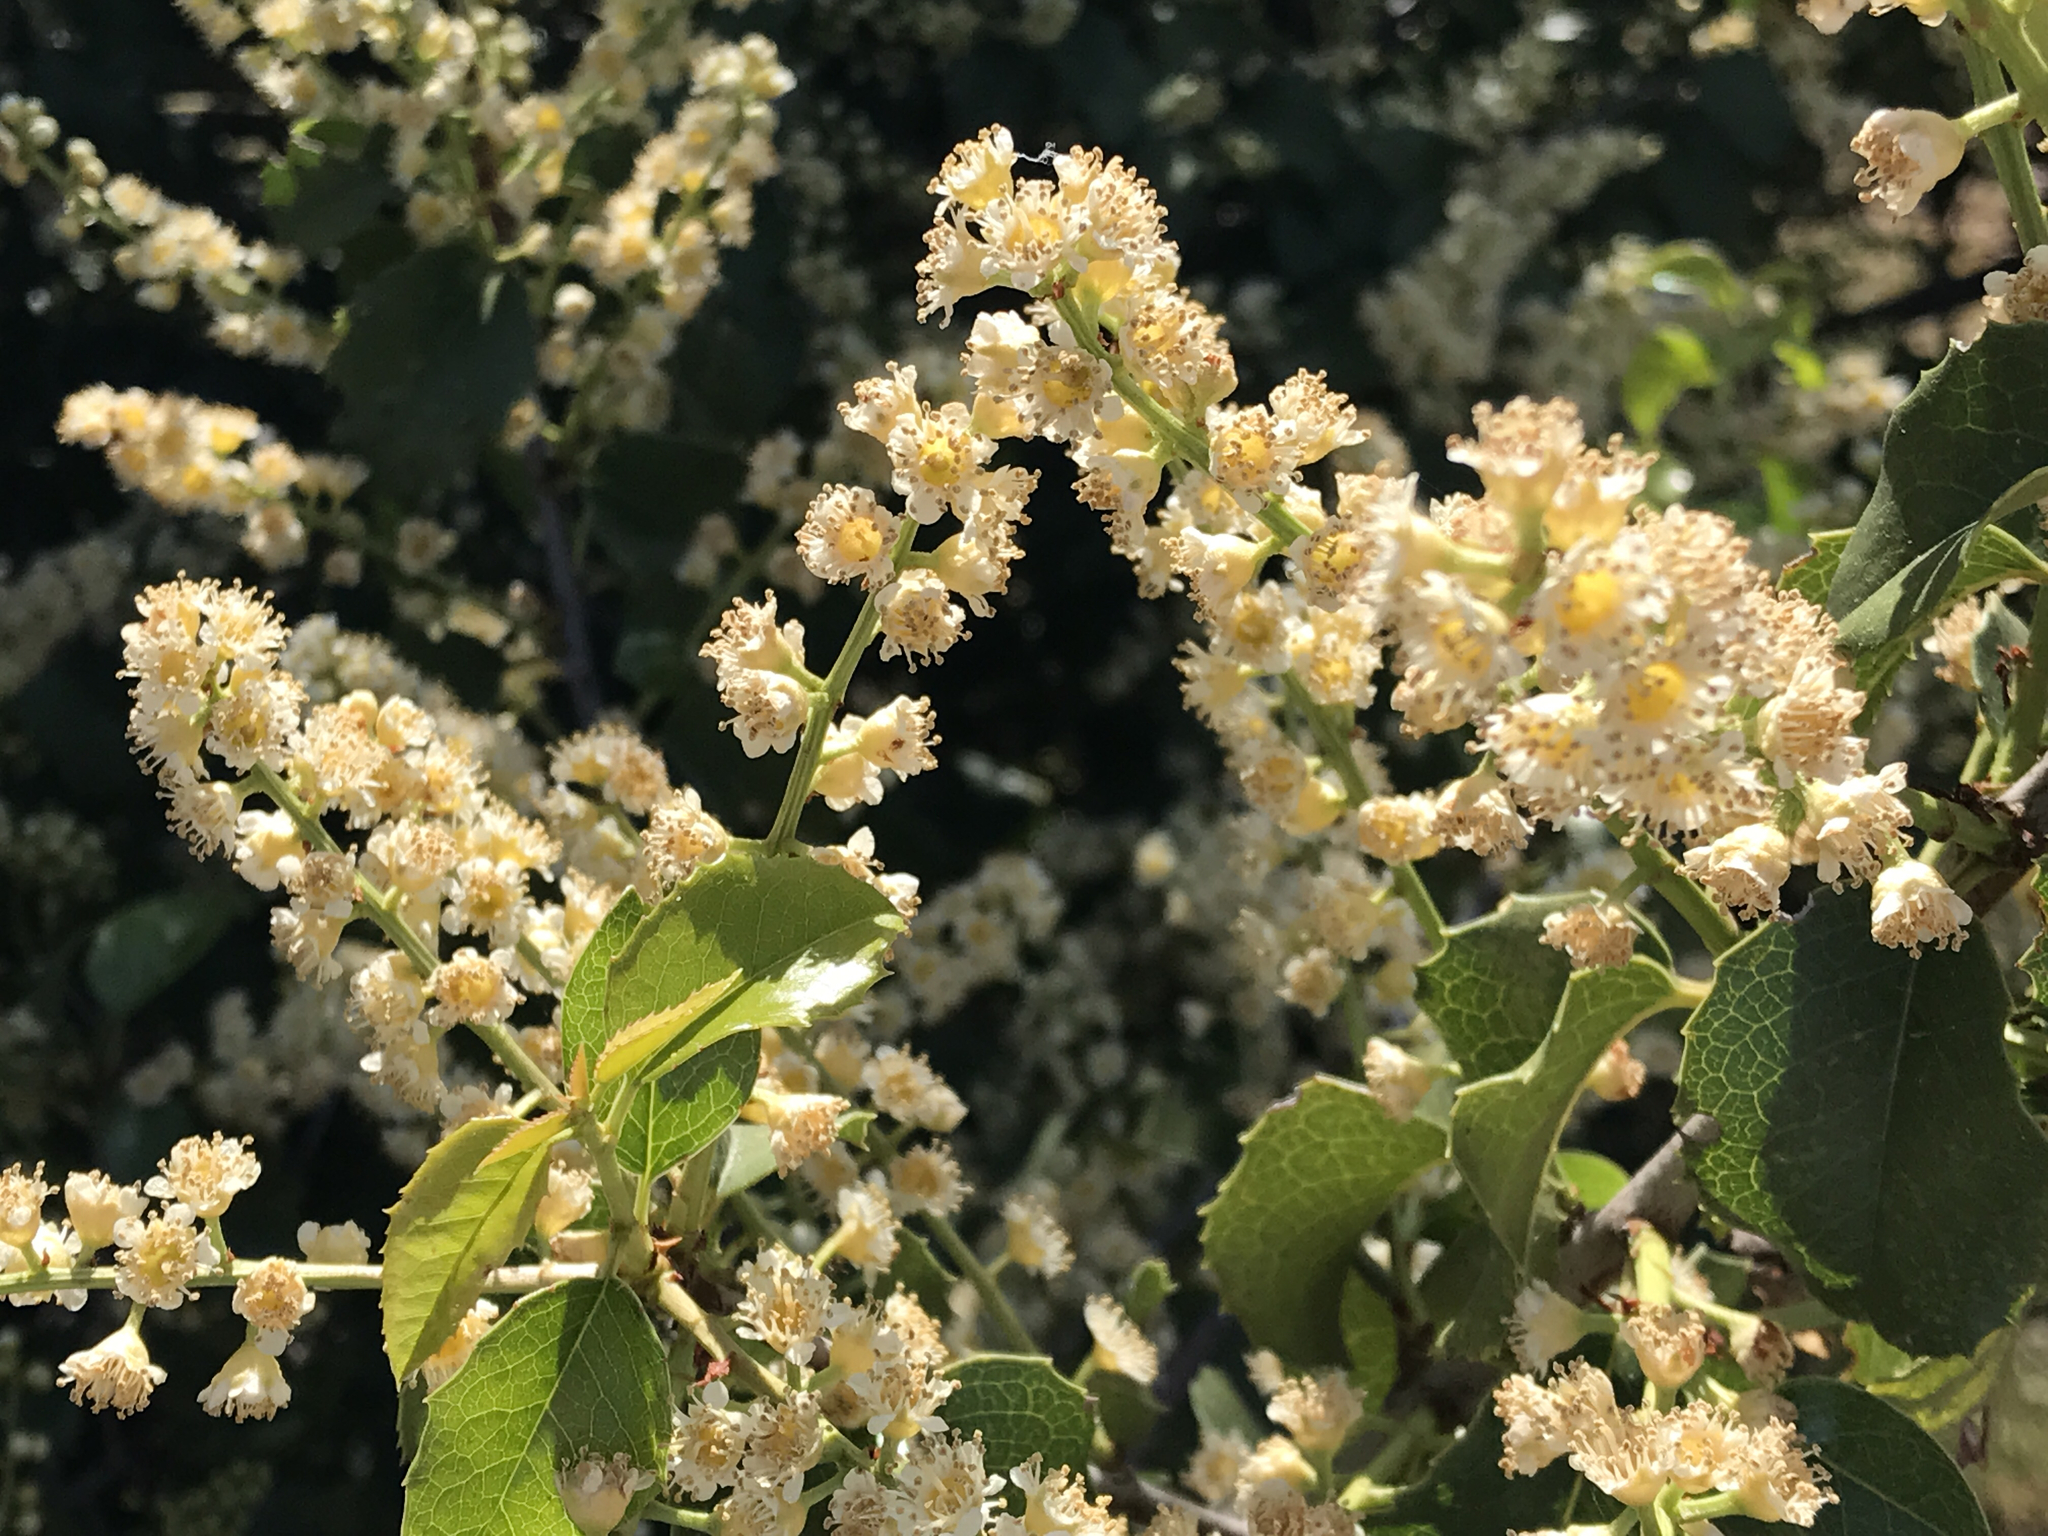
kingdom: Plantae
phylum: Tracheophyta
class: Magnoliopsida
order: Rosales
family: Rosaceae
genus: Prunus
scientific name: Prunus ilicifolia
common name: Hollyleaf cherry
